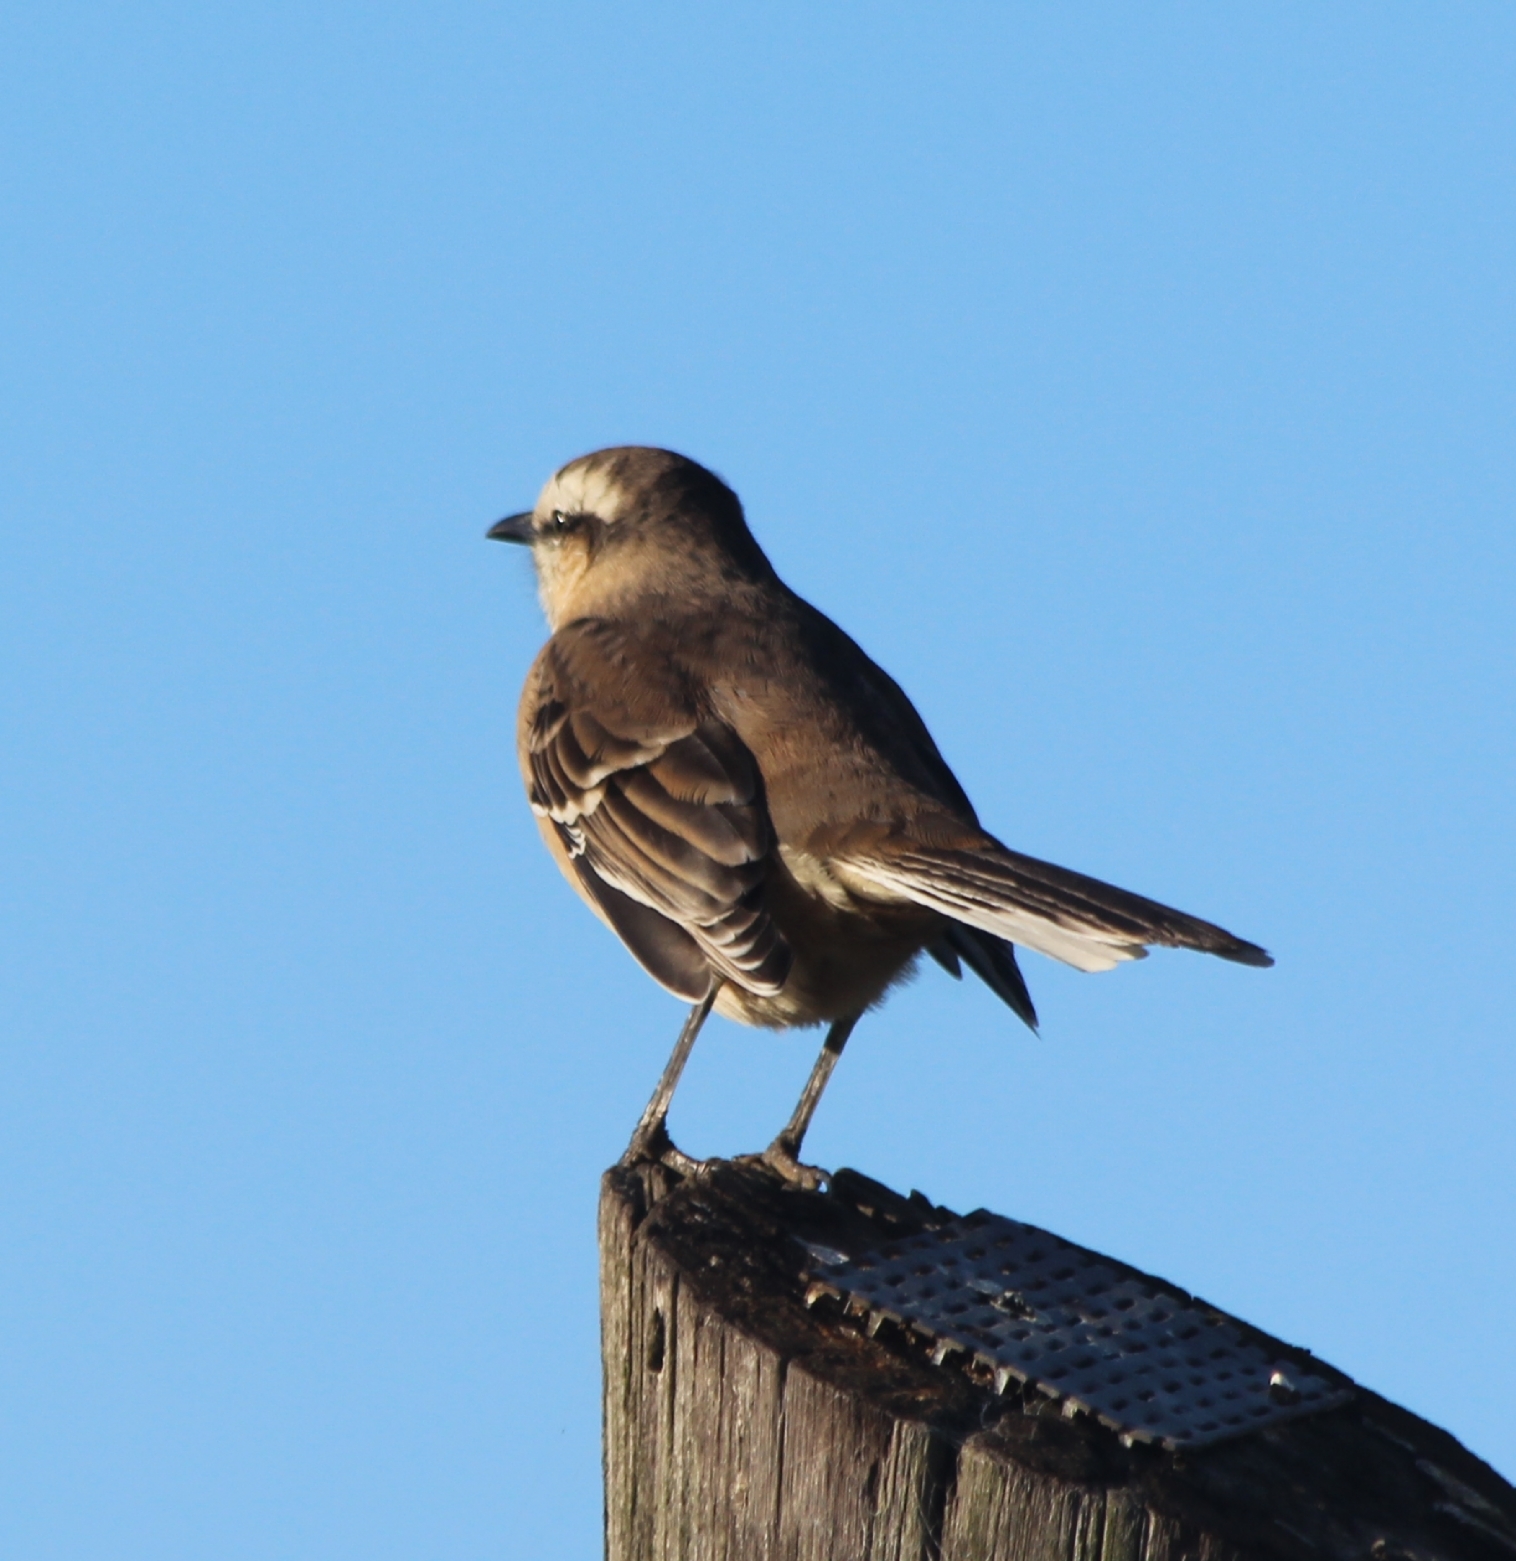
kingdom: Animalia
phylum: Chordata
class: Aves
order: Passeriformes
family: Mimidae
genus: Mimus
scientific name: Mimus saturninus
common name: Chalk-browed mockingbird
